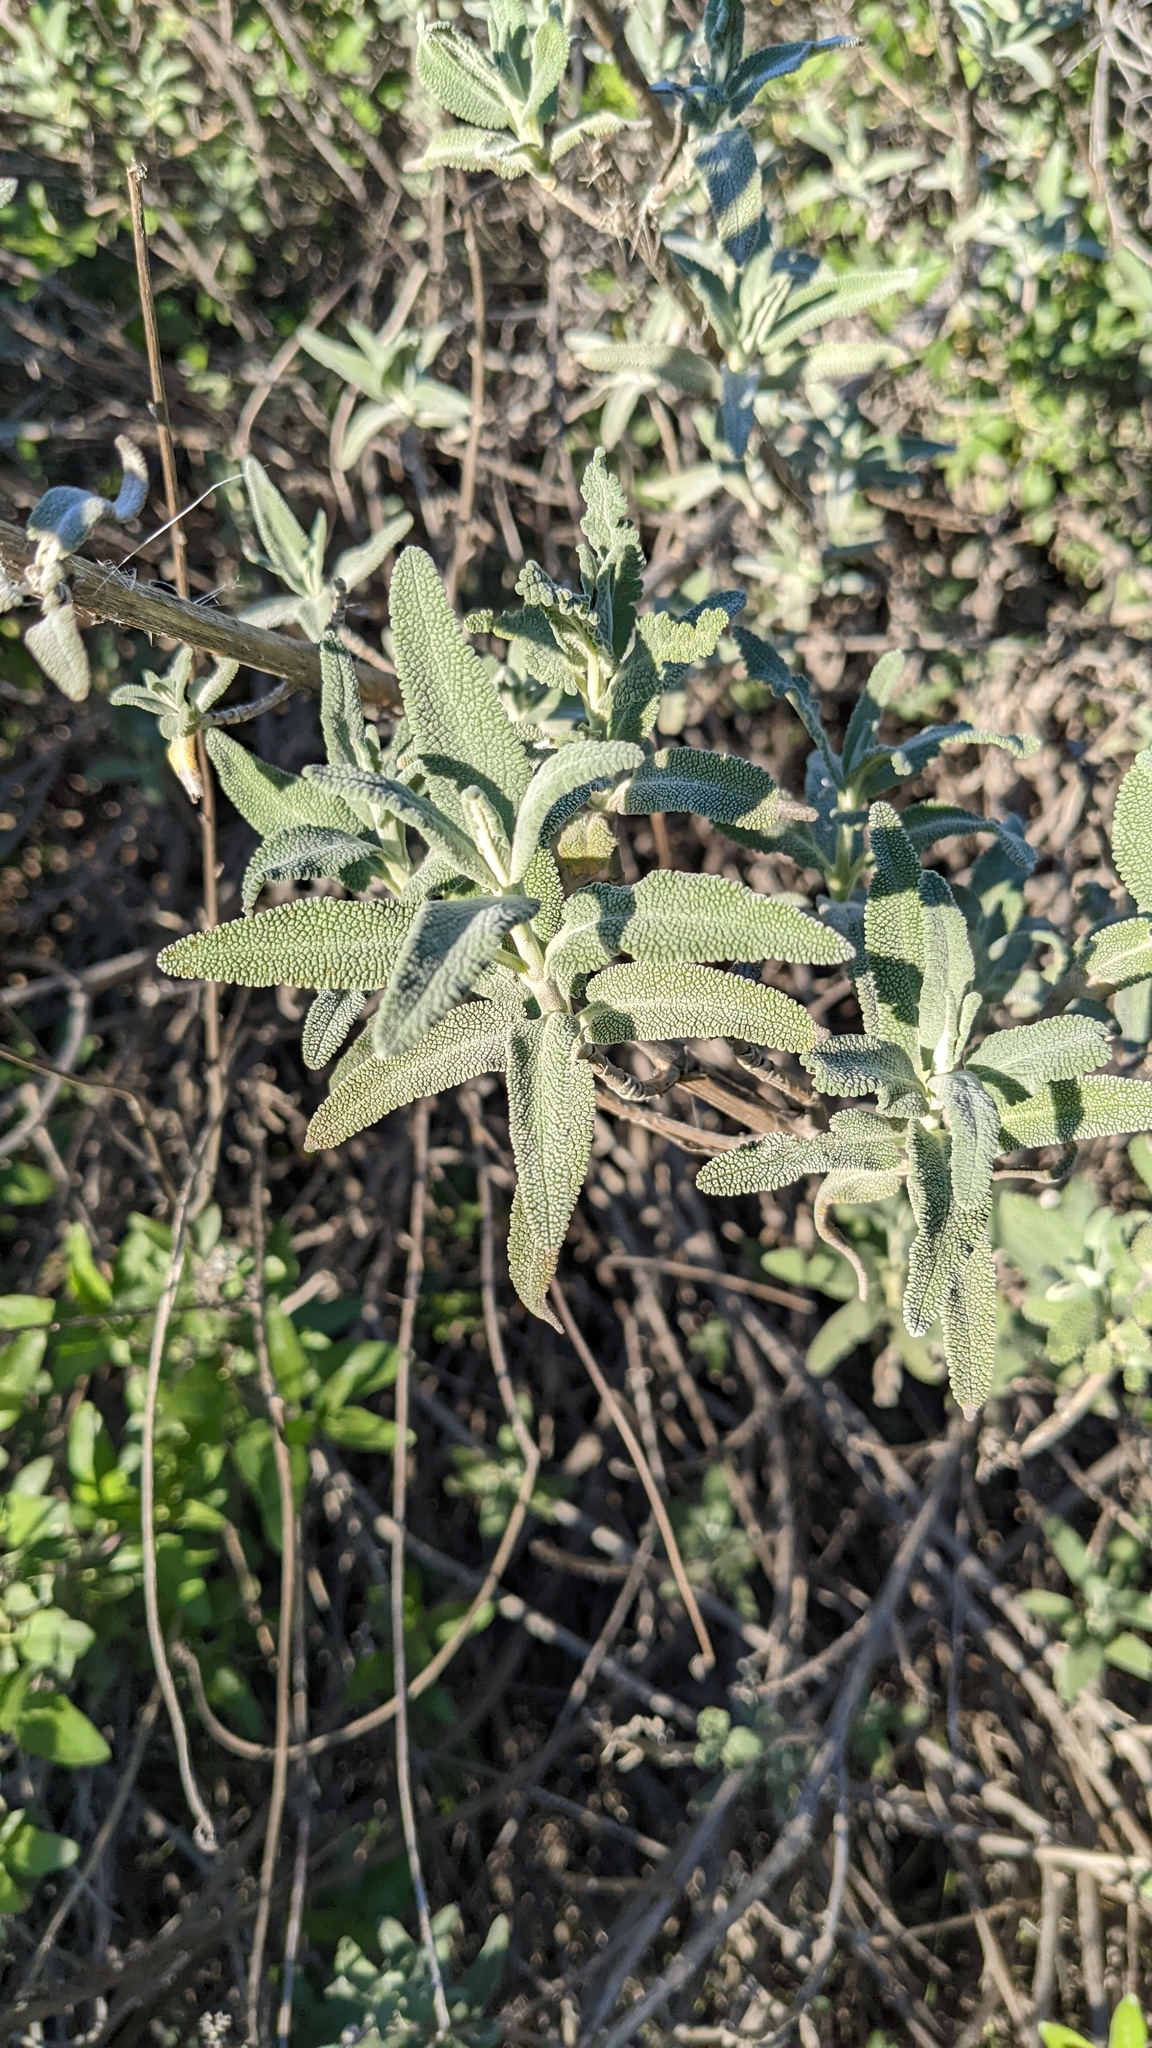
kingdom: Plantae
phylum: Tracheophyta
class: Magnoliopsida
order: Lamiales
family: Lamiaceae
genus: Salvia
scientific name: Salvia leucophylla
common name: Purple sage
